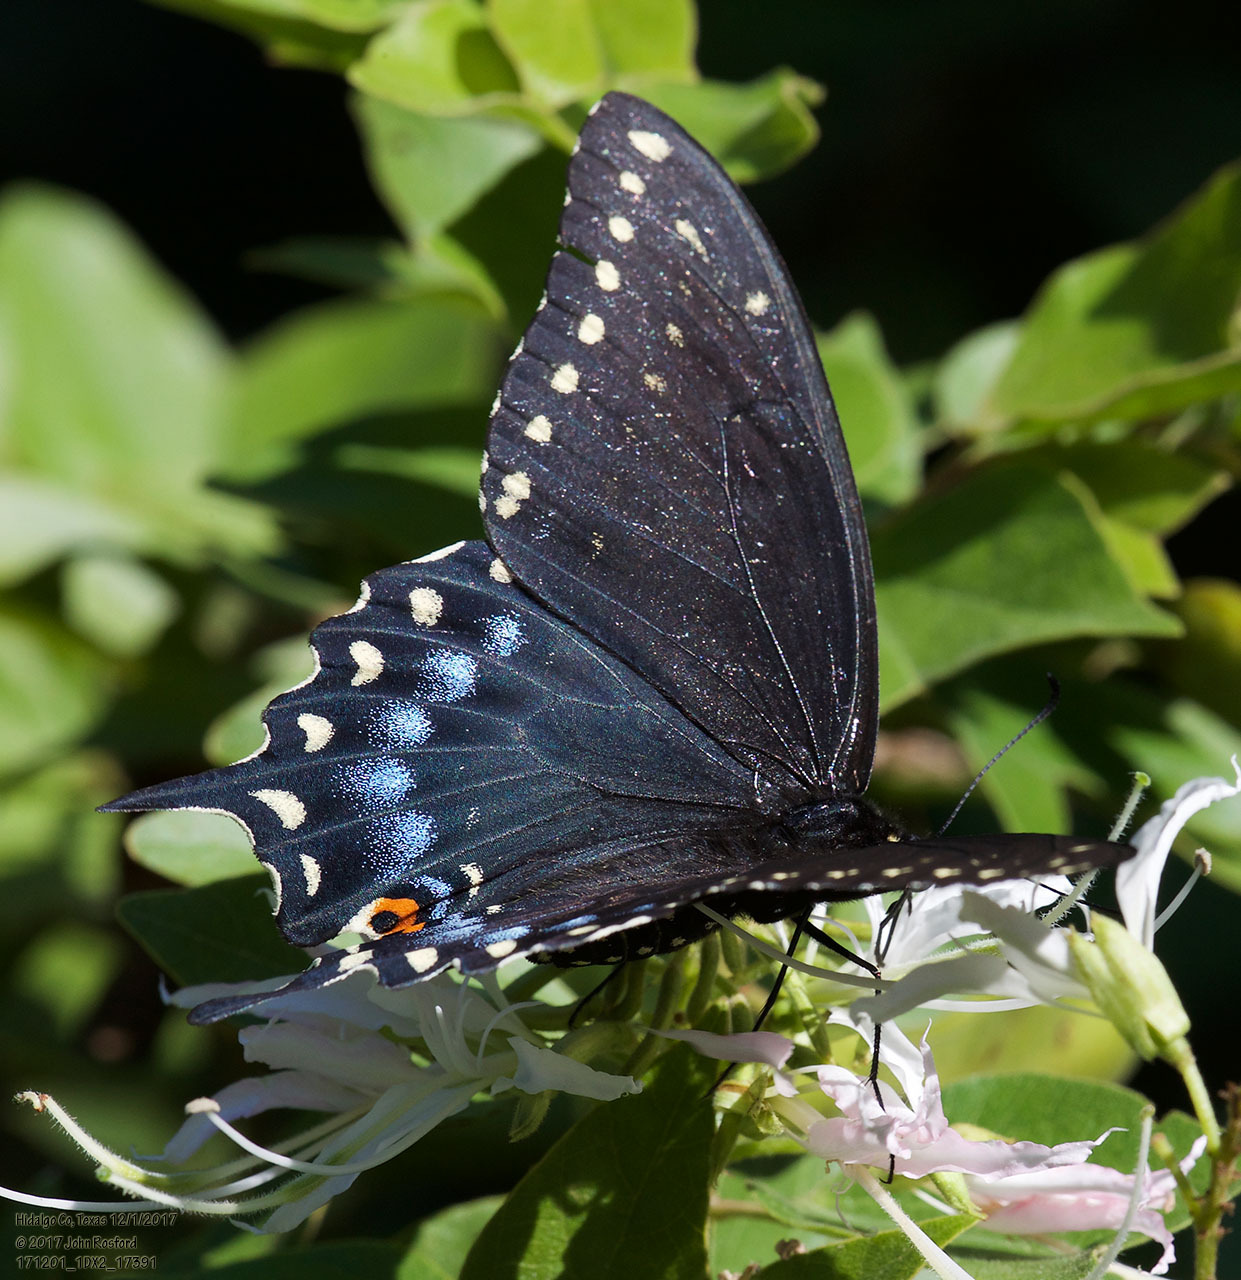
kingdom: Animalia
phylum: Arthropoda
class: Insecta
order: Lepidoptera
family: Papilionidae
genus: Papilio
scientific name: Papilio polyxenes
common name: Black swallowtail
